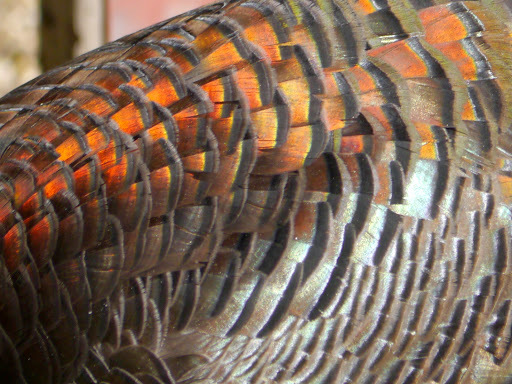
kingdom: Animalia
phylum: Chordata
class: Aves
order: Galliformes
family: Phasianidae
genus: Meleagris
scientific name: Meleagris gallopavo
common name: Wild turkey
